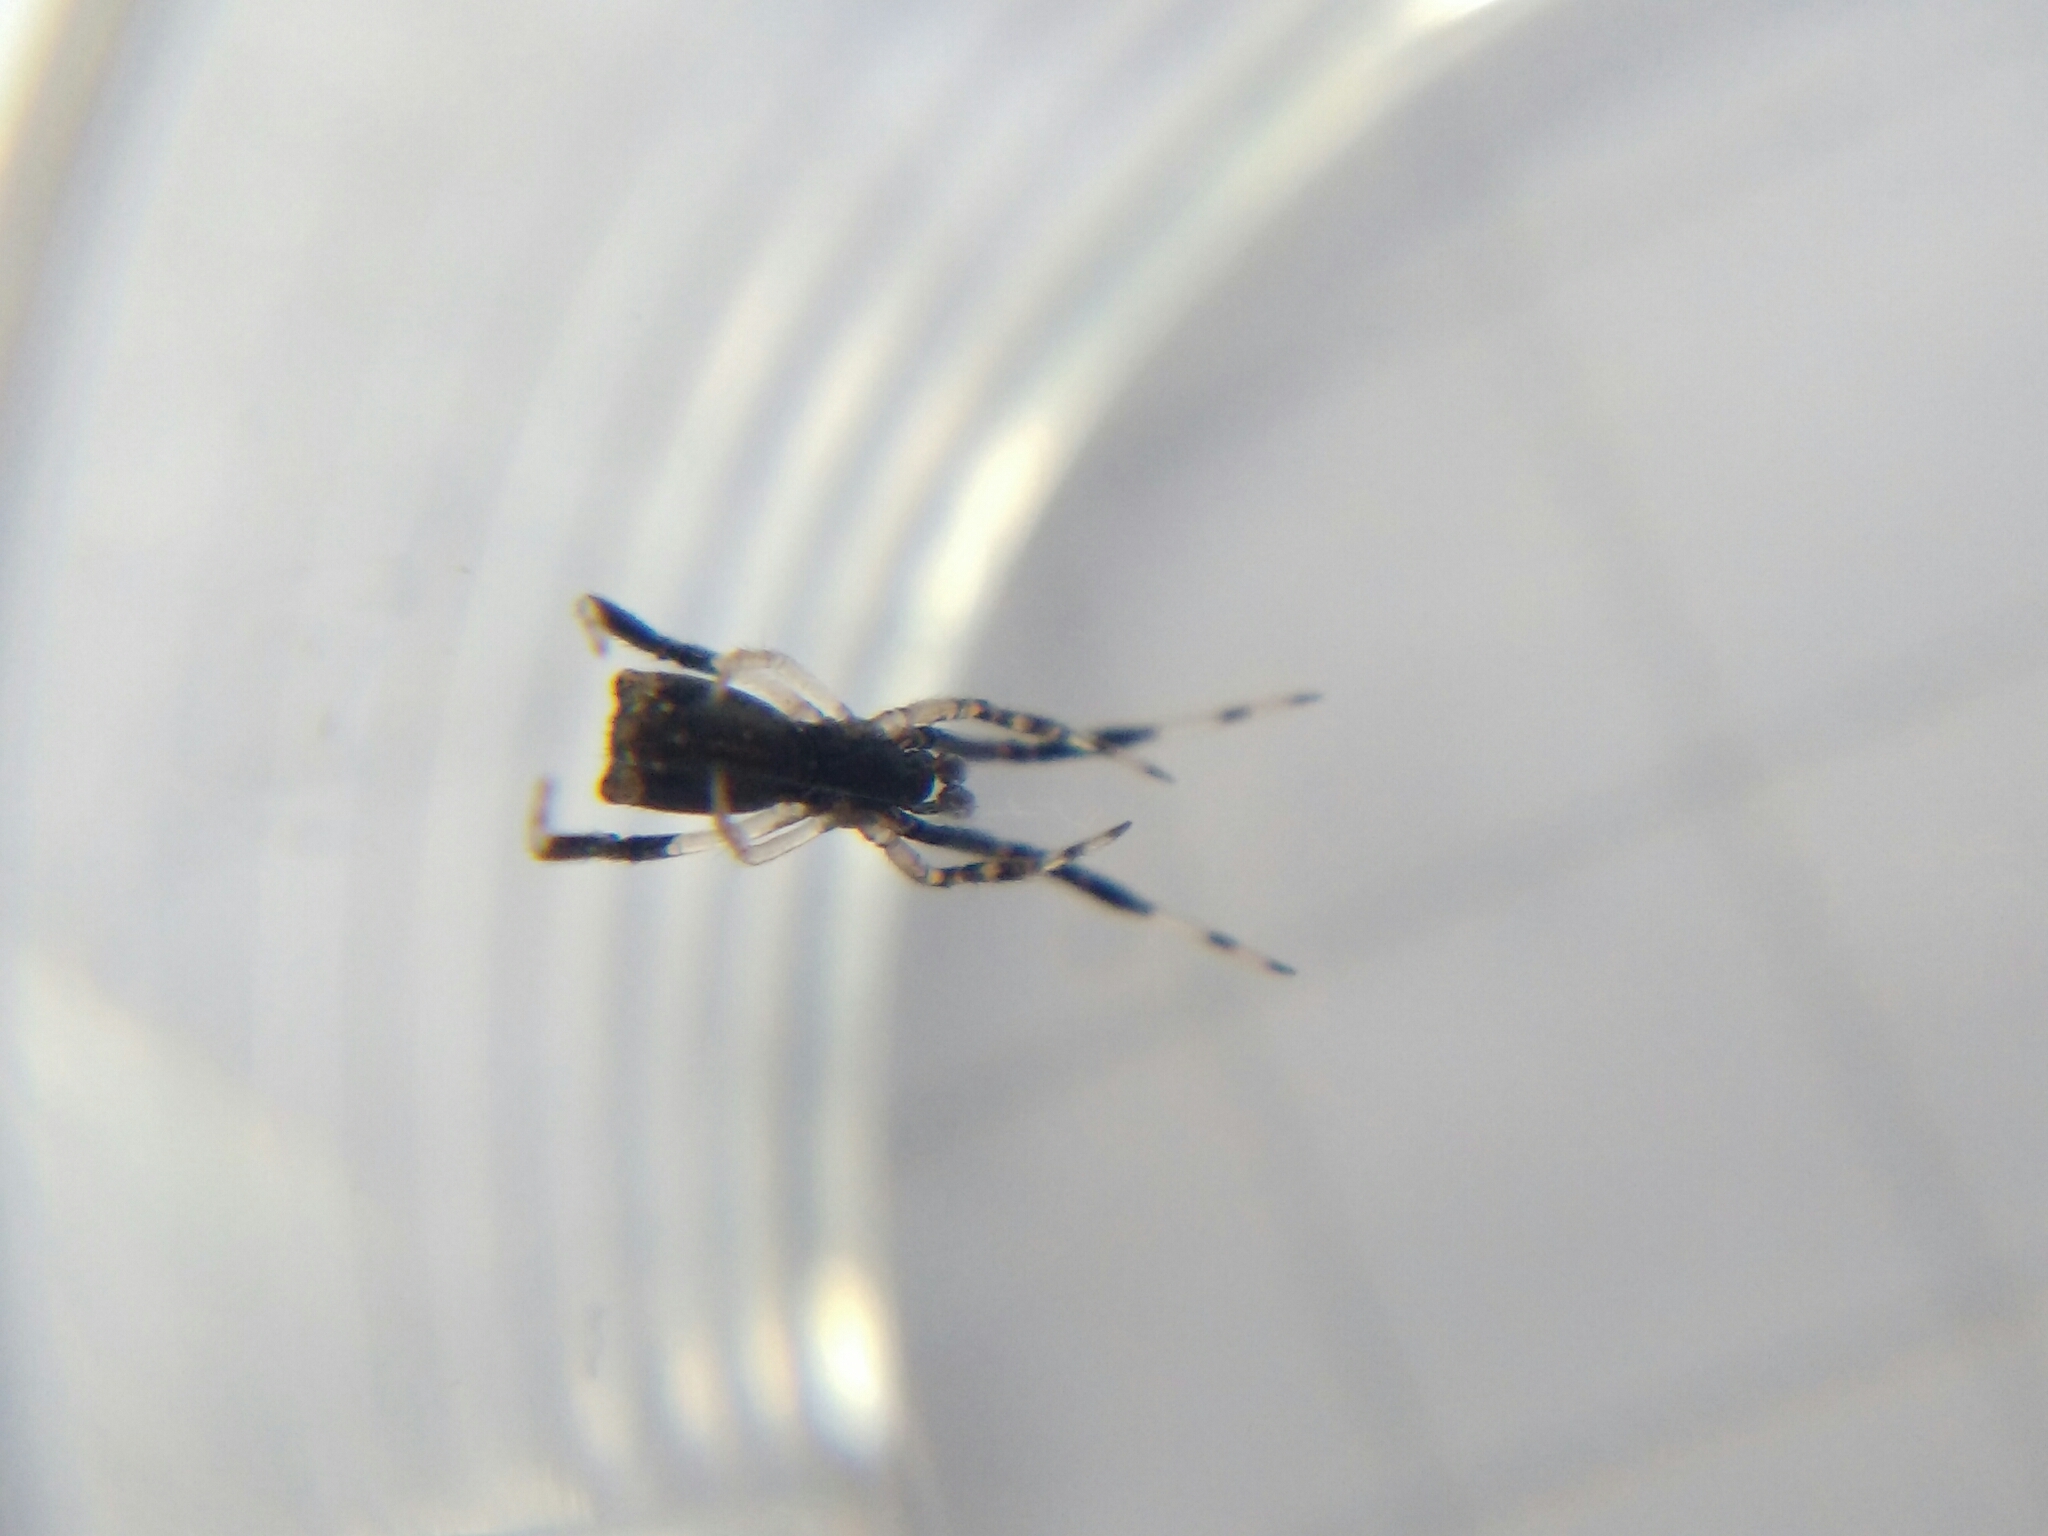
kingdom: Animalia
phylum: Arthropoda
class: Arachnida
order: Araneae
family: Theridiidae
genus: Episinus
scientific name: Episinus truncatus
